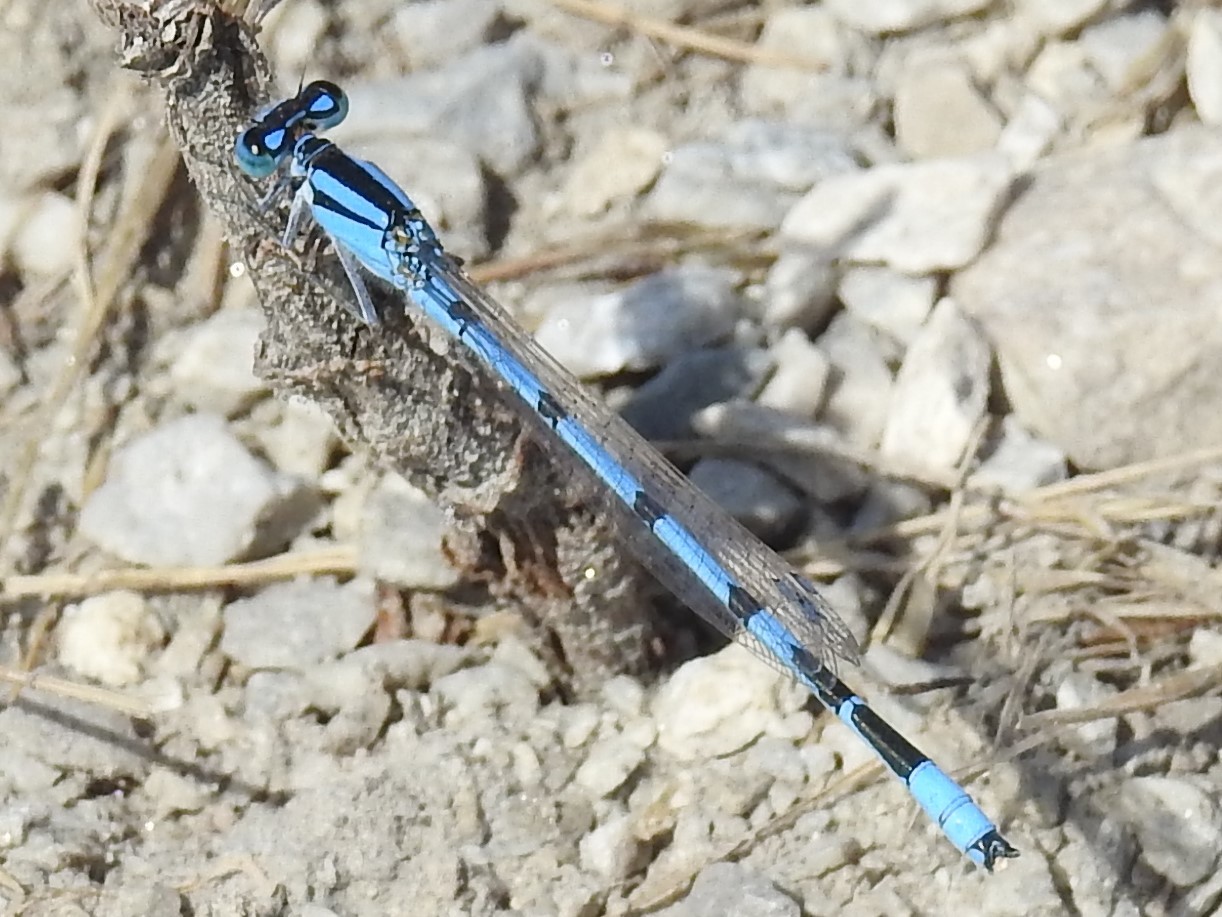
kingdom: Animalia
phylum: Arthropoda
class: Insecta
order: Odonata
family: Coenagrionidae
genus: Enallagma
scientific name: Enallagma civile
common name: Damselfly
